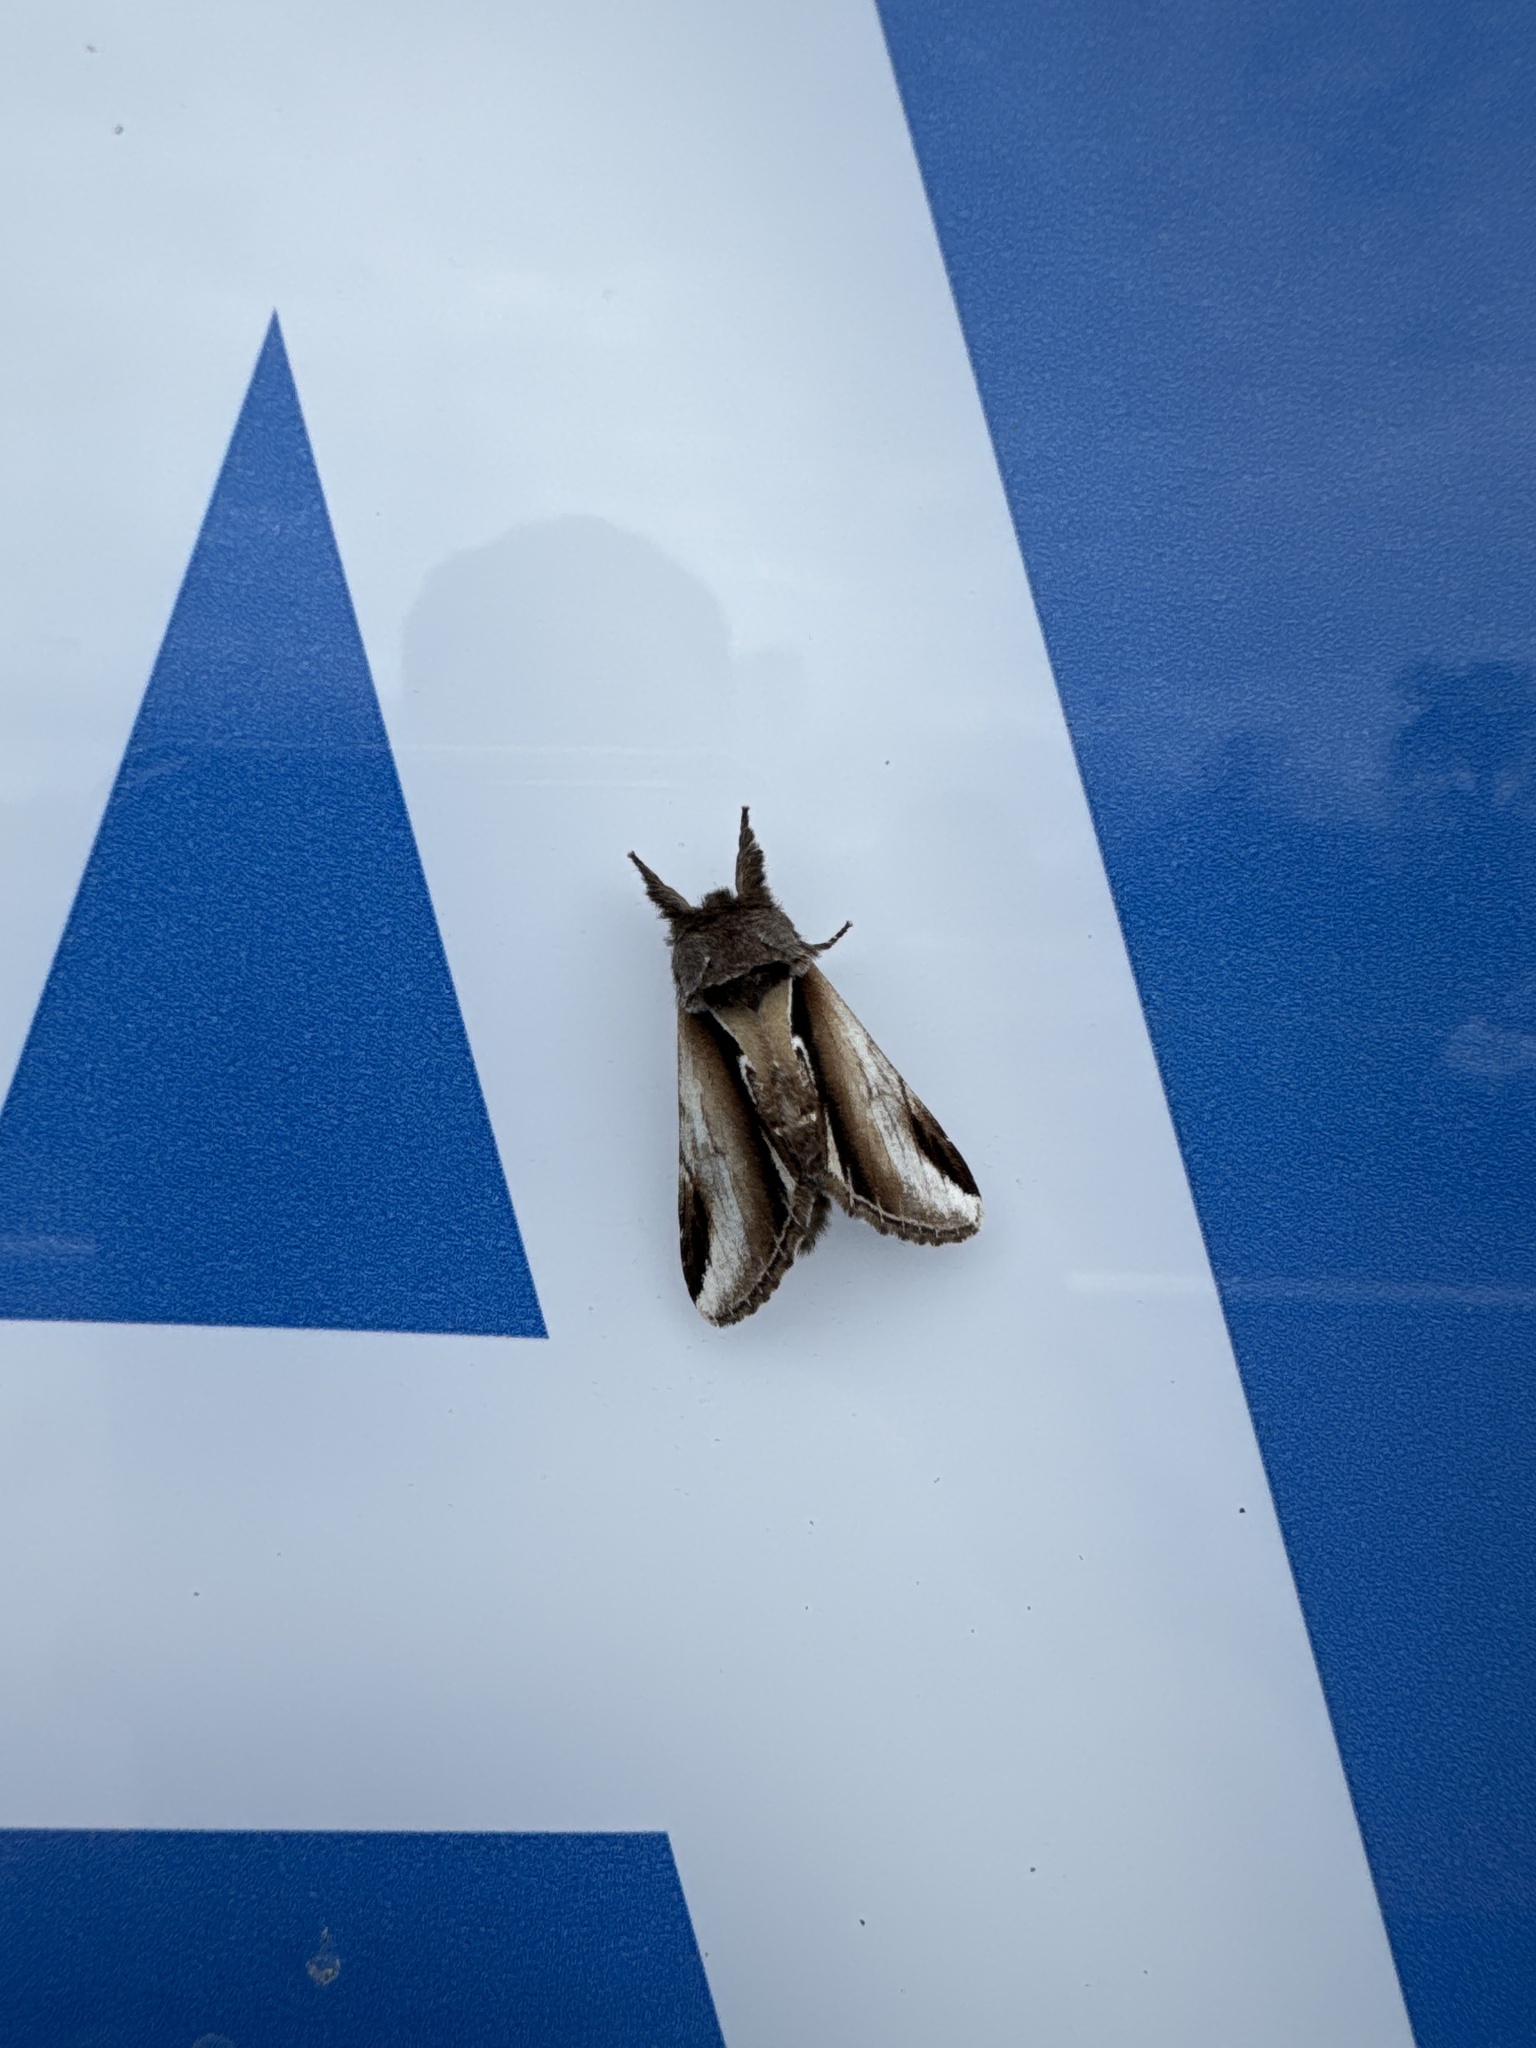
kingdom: Animalia
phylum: Arthropoda
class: Insecta
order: Lepidoptera
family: Notodontidae
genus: Pheosia
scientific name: Pheosia gnoma
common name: Lesser swallow prominent
